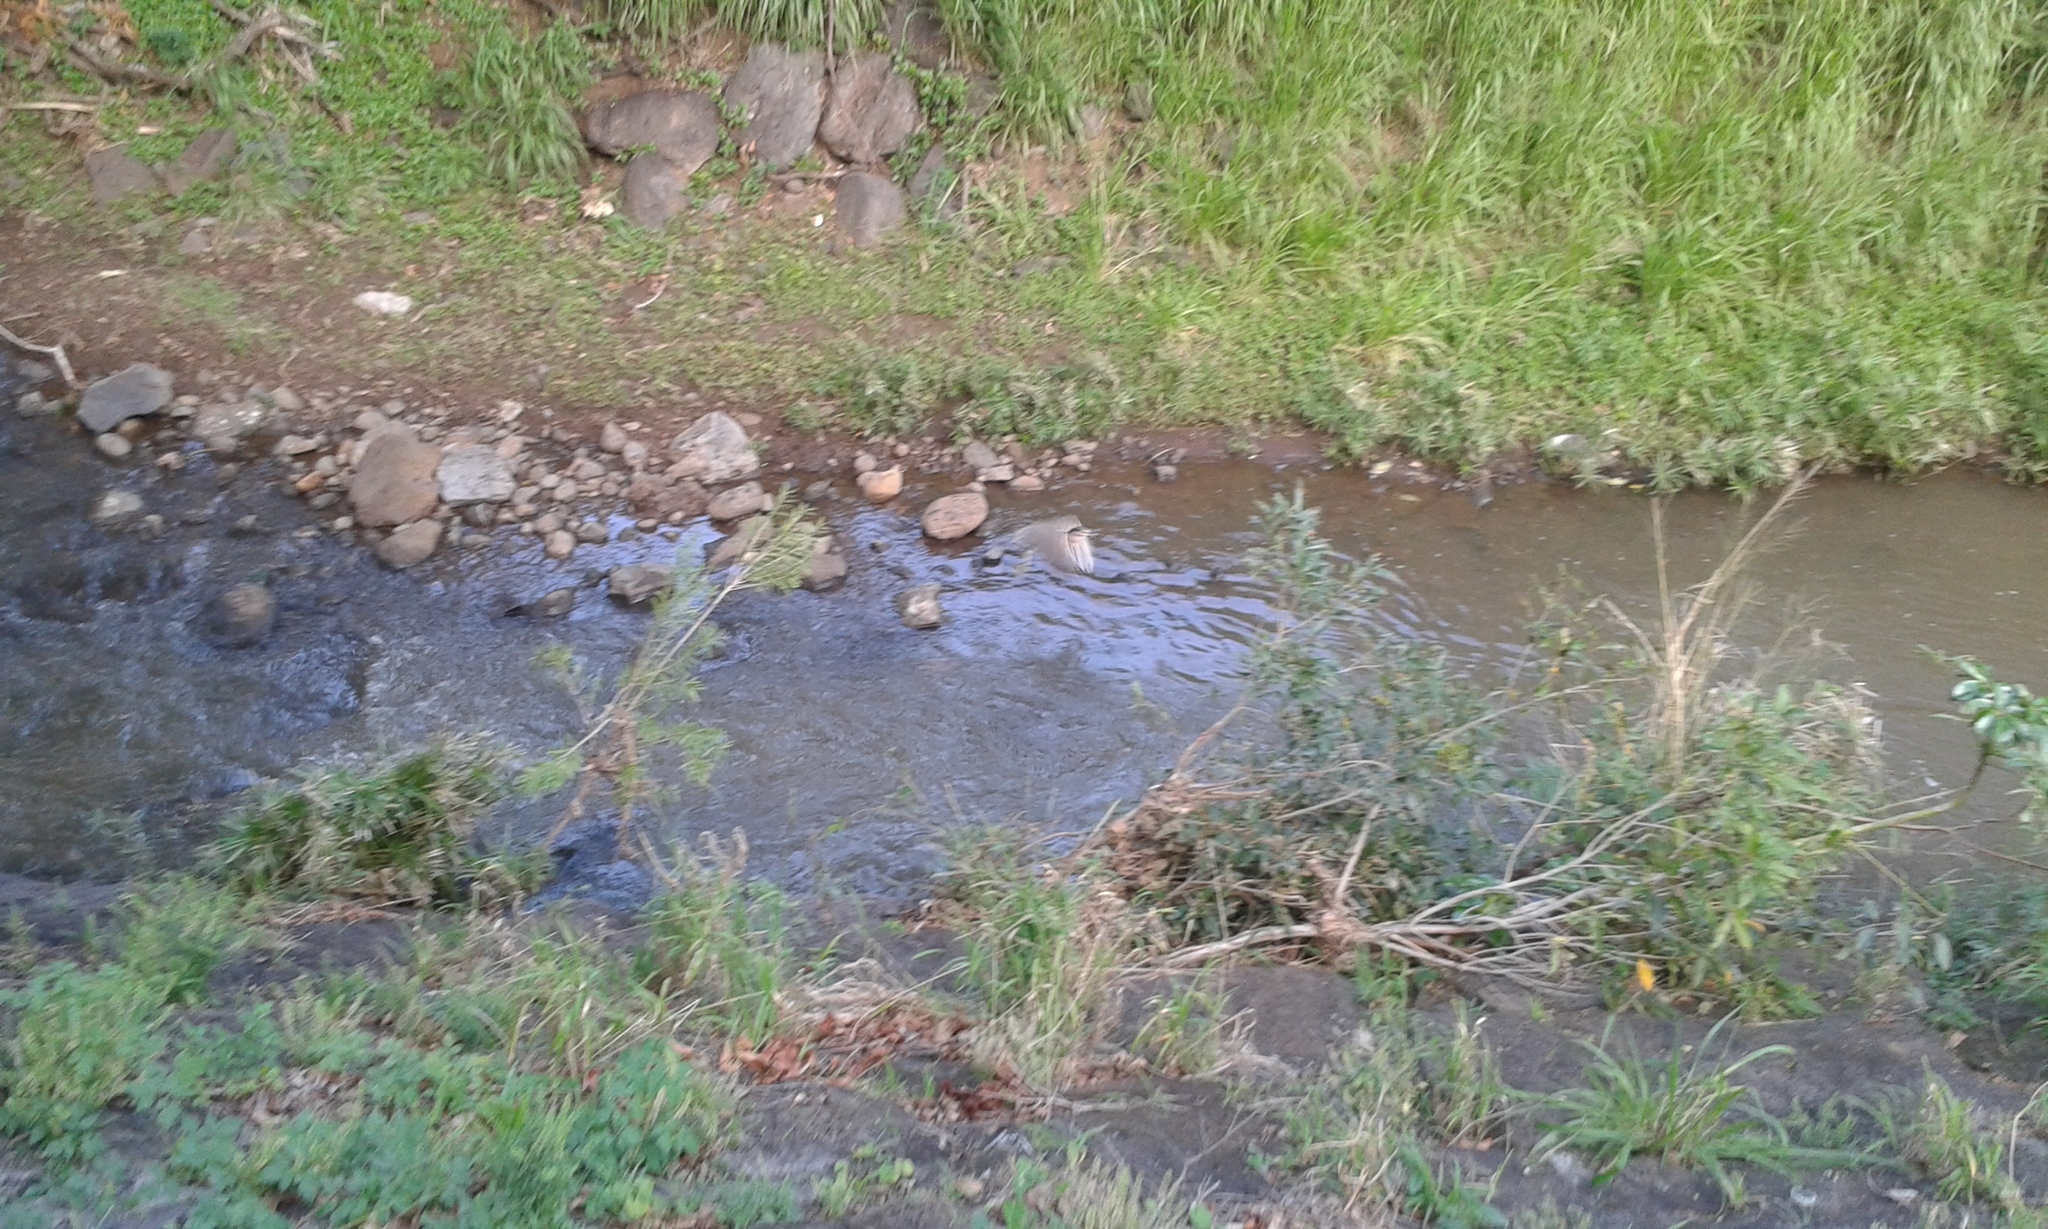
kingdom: Animalia
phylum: Chordata
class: Aves
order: Pelecaniformes
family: Ardeidae
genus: Nycticorax
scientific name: Nycticorax nycticorax
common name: Black-crowned night heron
